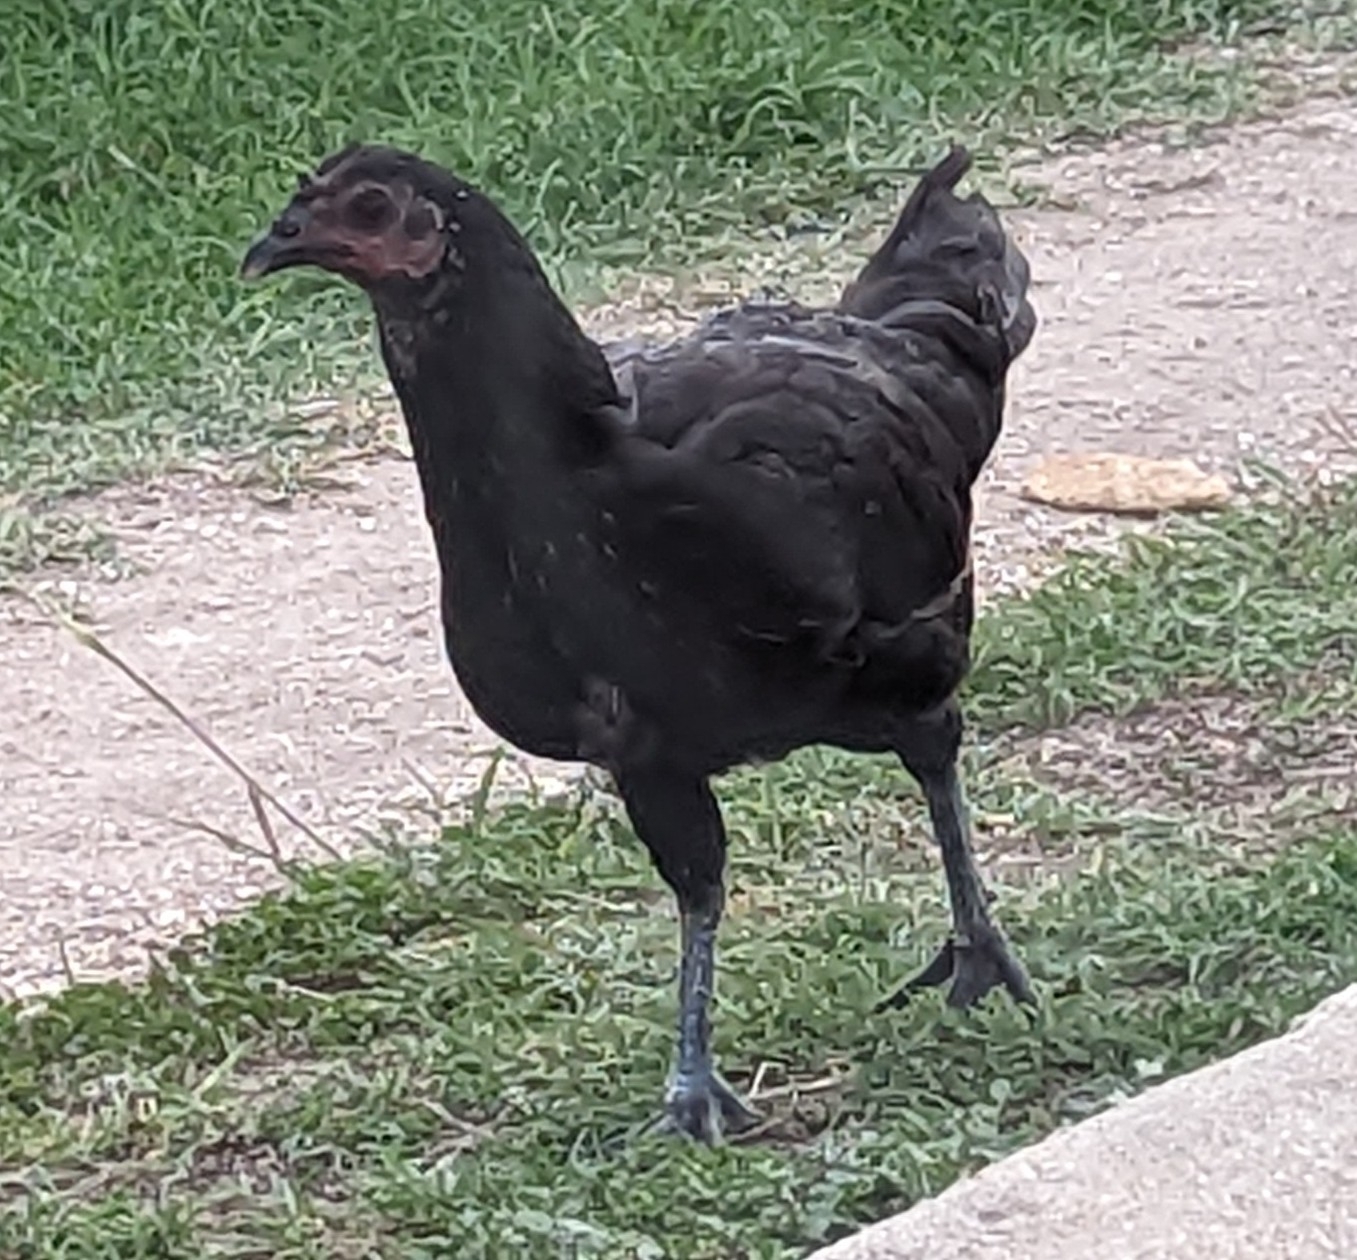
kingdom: Animalia
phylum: Chordata
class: Aves
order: Galliformes
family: Phasianidae
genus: Gallus
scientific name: Gallus gallus
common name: Red junglefowl
